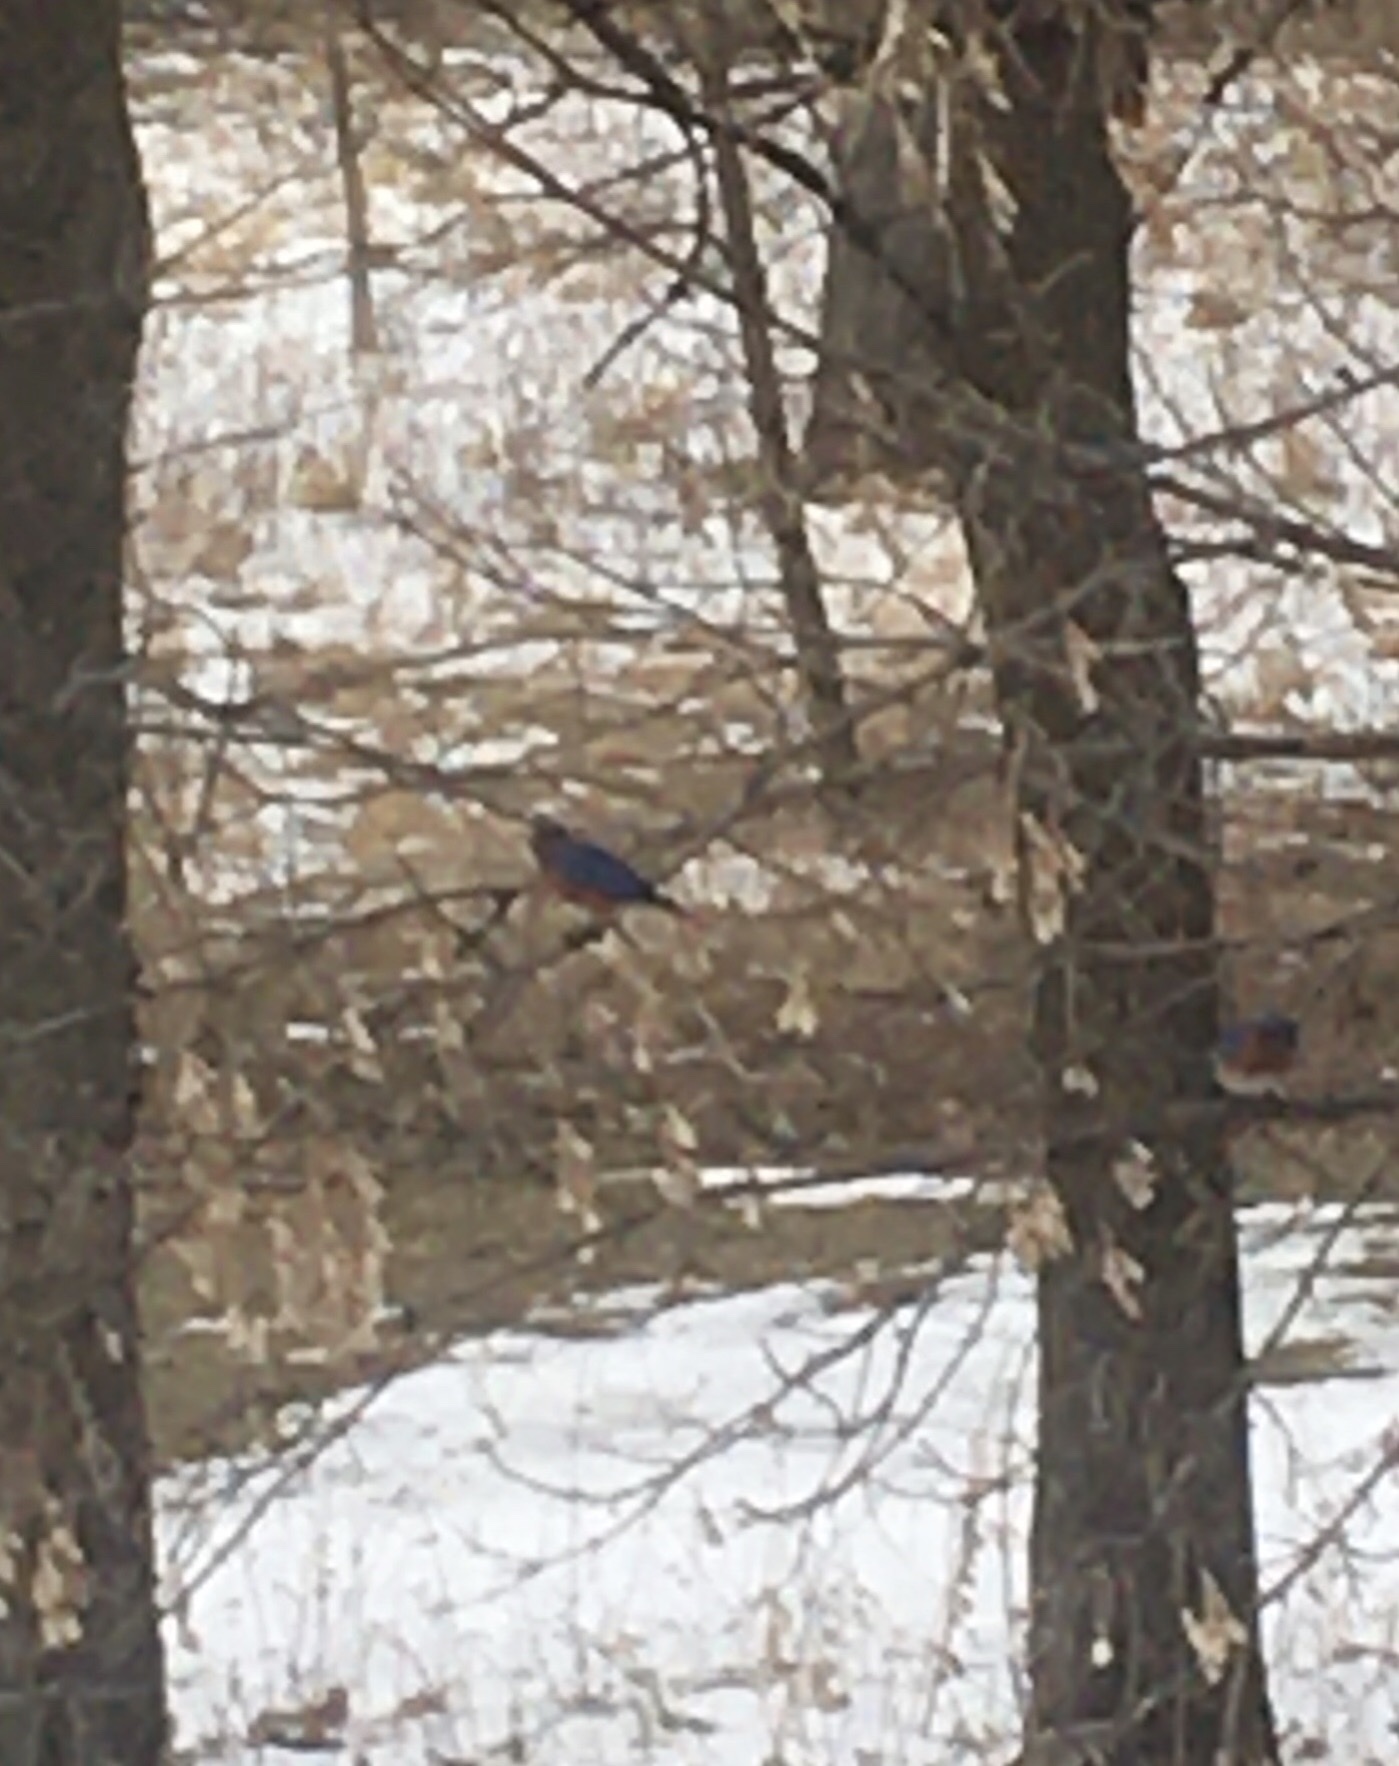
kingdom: Animalia
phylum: Chordata
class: Aves
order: Passeriformes
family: Turdidae
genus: Sialia
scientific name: Sialia sialis
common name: Eastern bluebird
